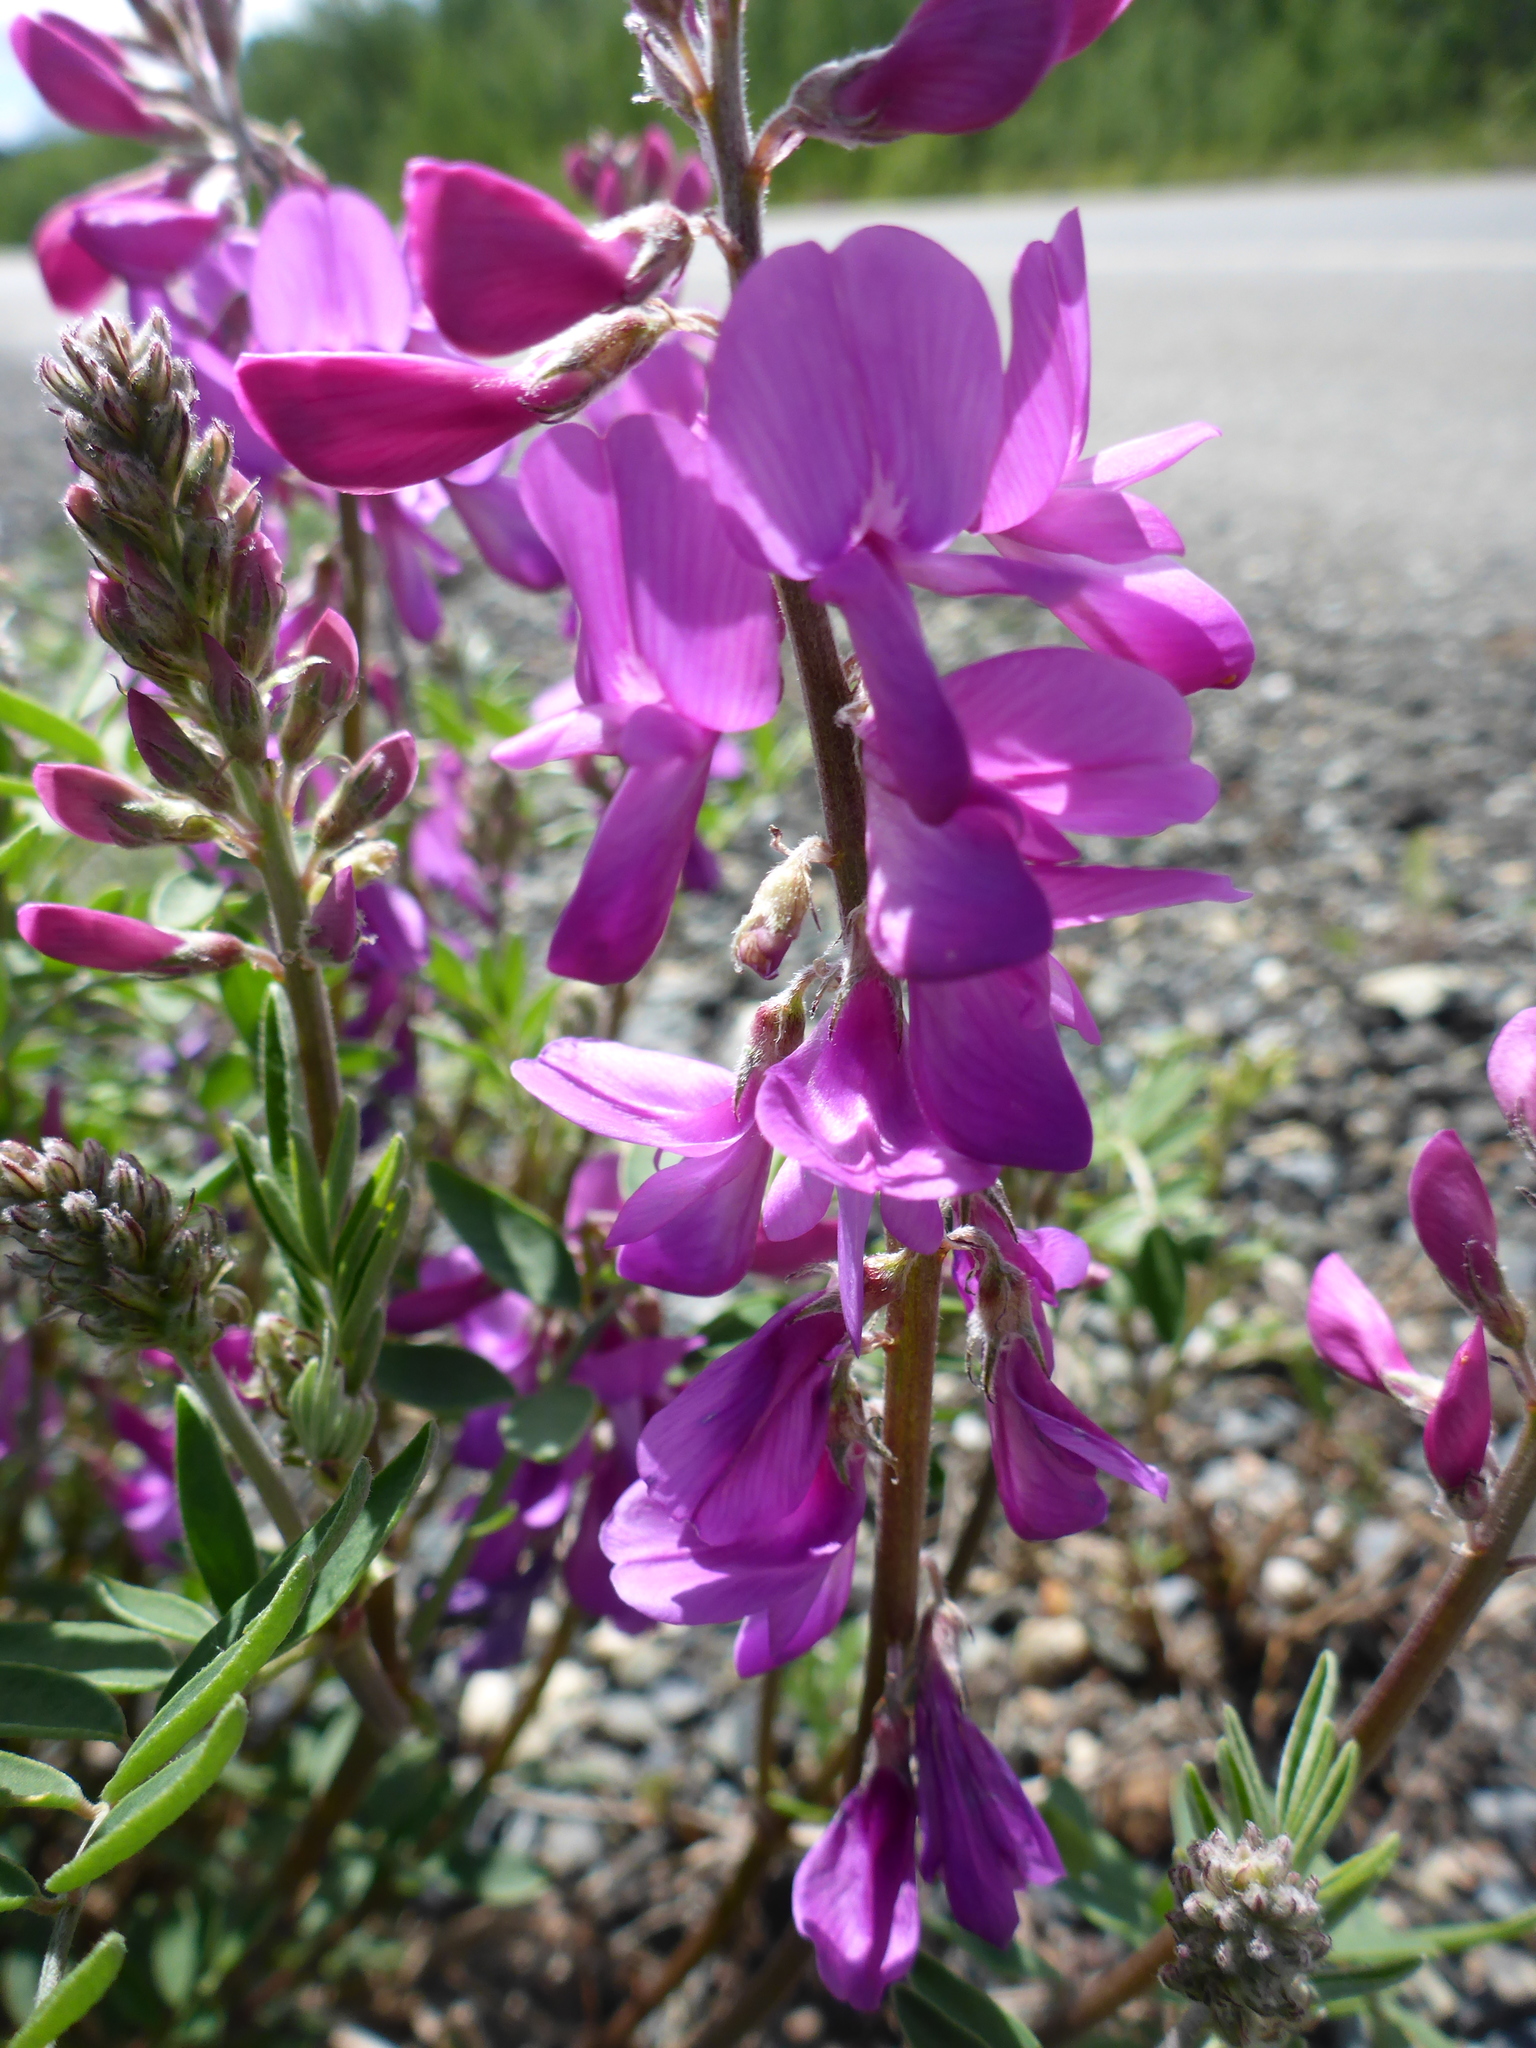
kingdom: Plantae
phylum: Tracheophyta
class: Magnoliopsida
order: Fabales
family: Fabaceae
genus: Hedysarum
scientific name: Hedysarum boreale
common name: Northern sweet-vetch
